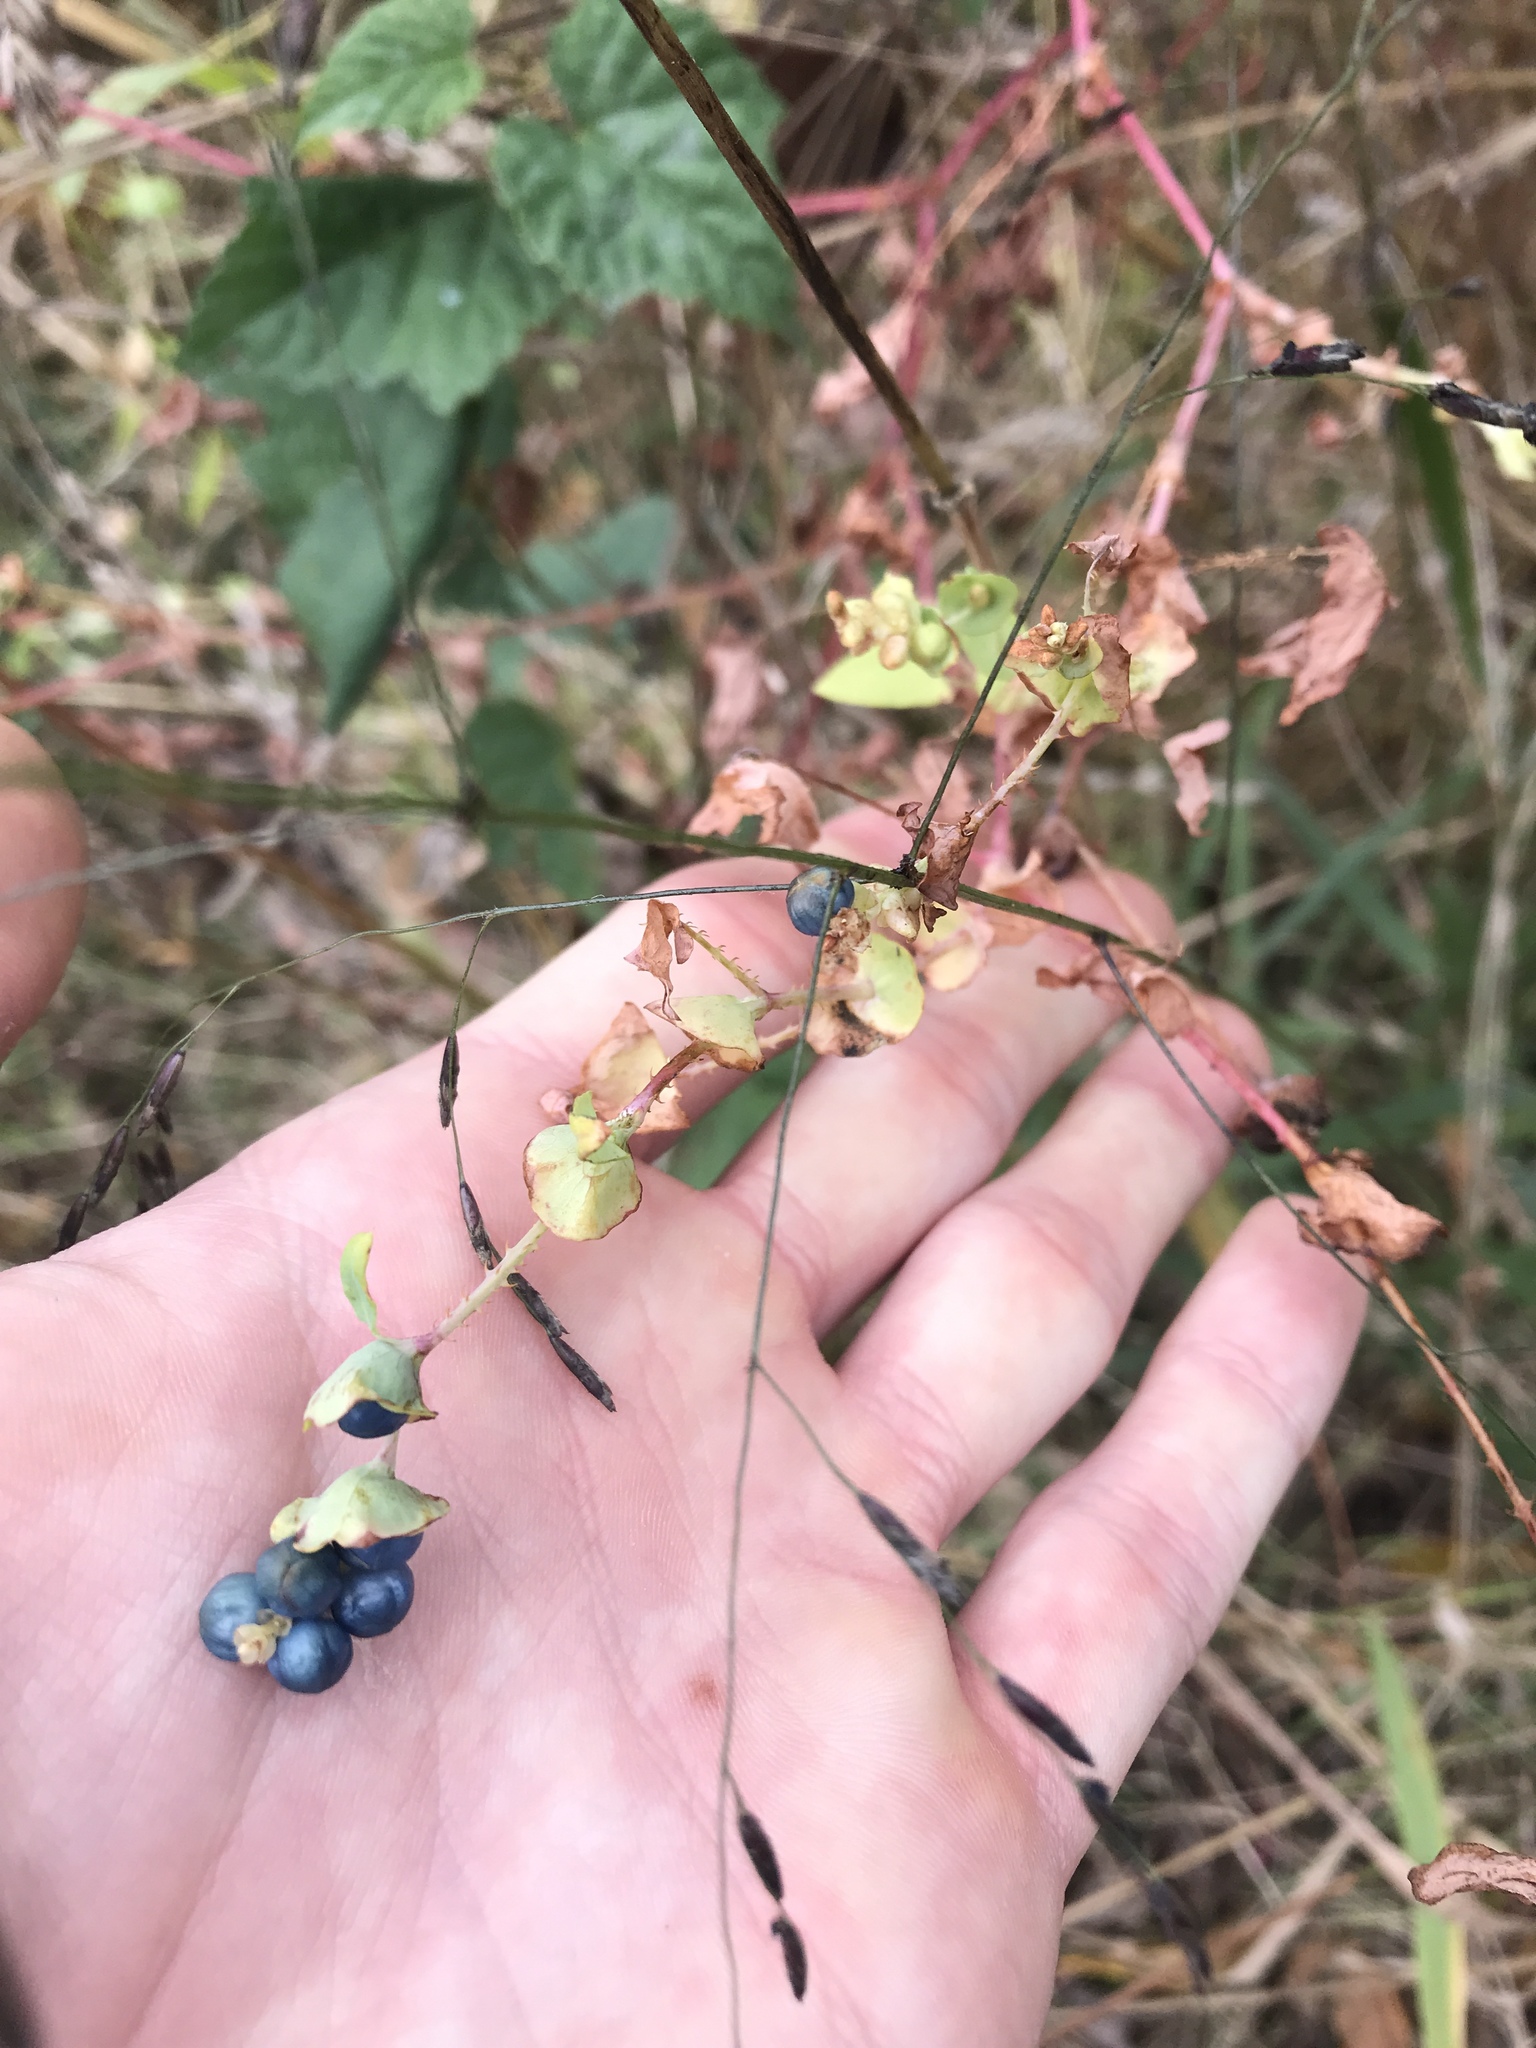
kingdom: Plantae
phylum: Tracheophyta
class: Magnoliopsida
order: Caryophyllales
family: Polygonaceae
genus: Persicaria
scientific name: Persicaria perfoliata
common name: Asiatic tearthumb
